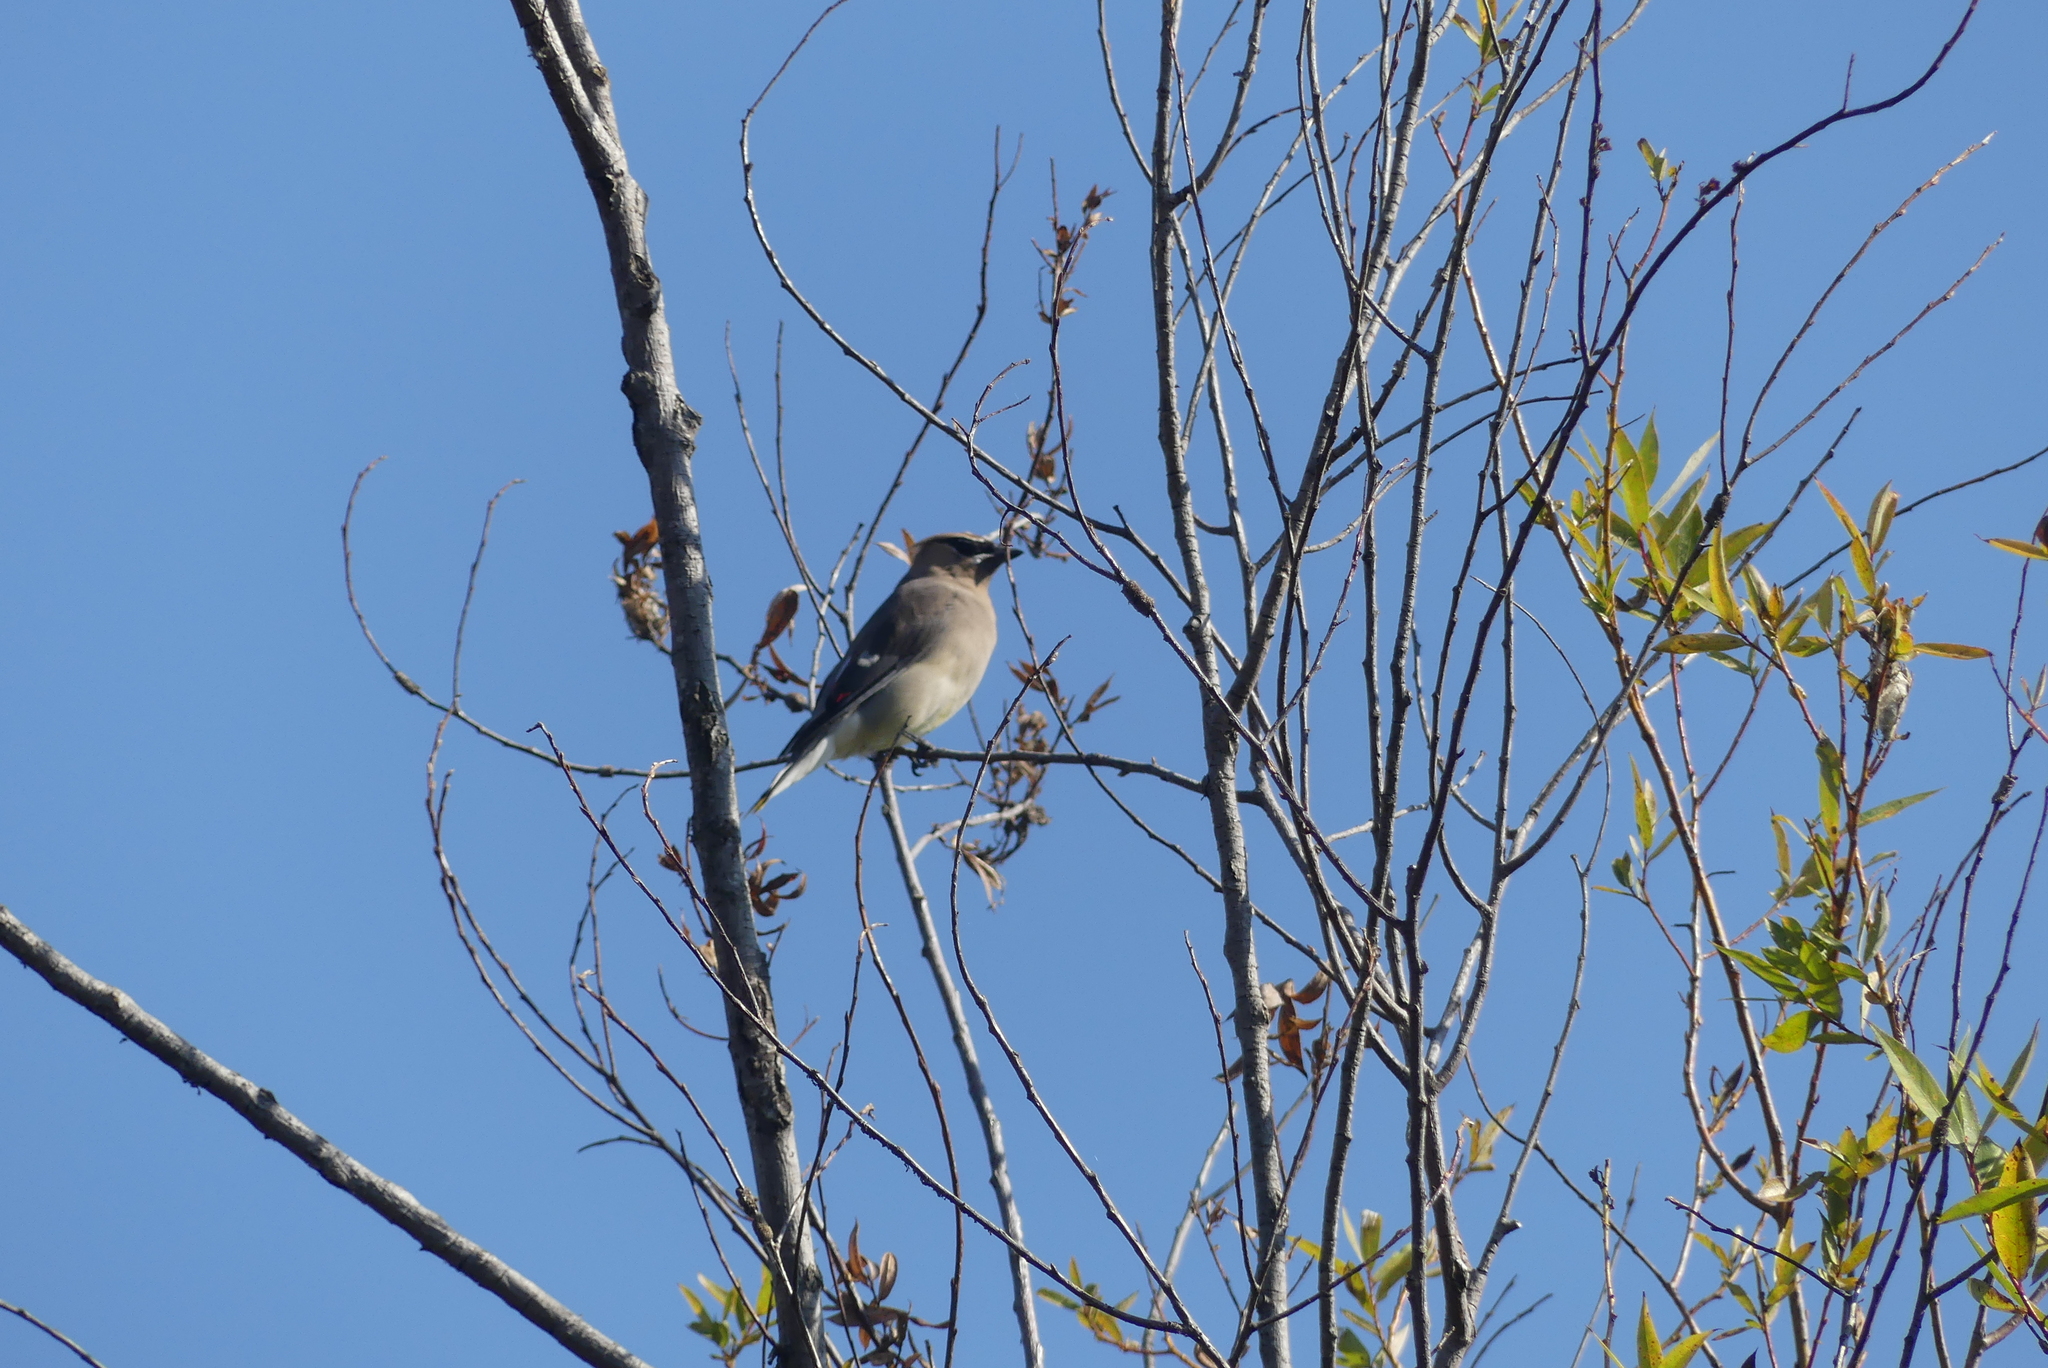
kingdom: Animalia
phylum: Chordata
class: Aves
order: Passeriformes
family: Bombycillidae
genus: Bombycilla
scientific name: Bombycilla cedrorum
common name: Cedar waxwing
